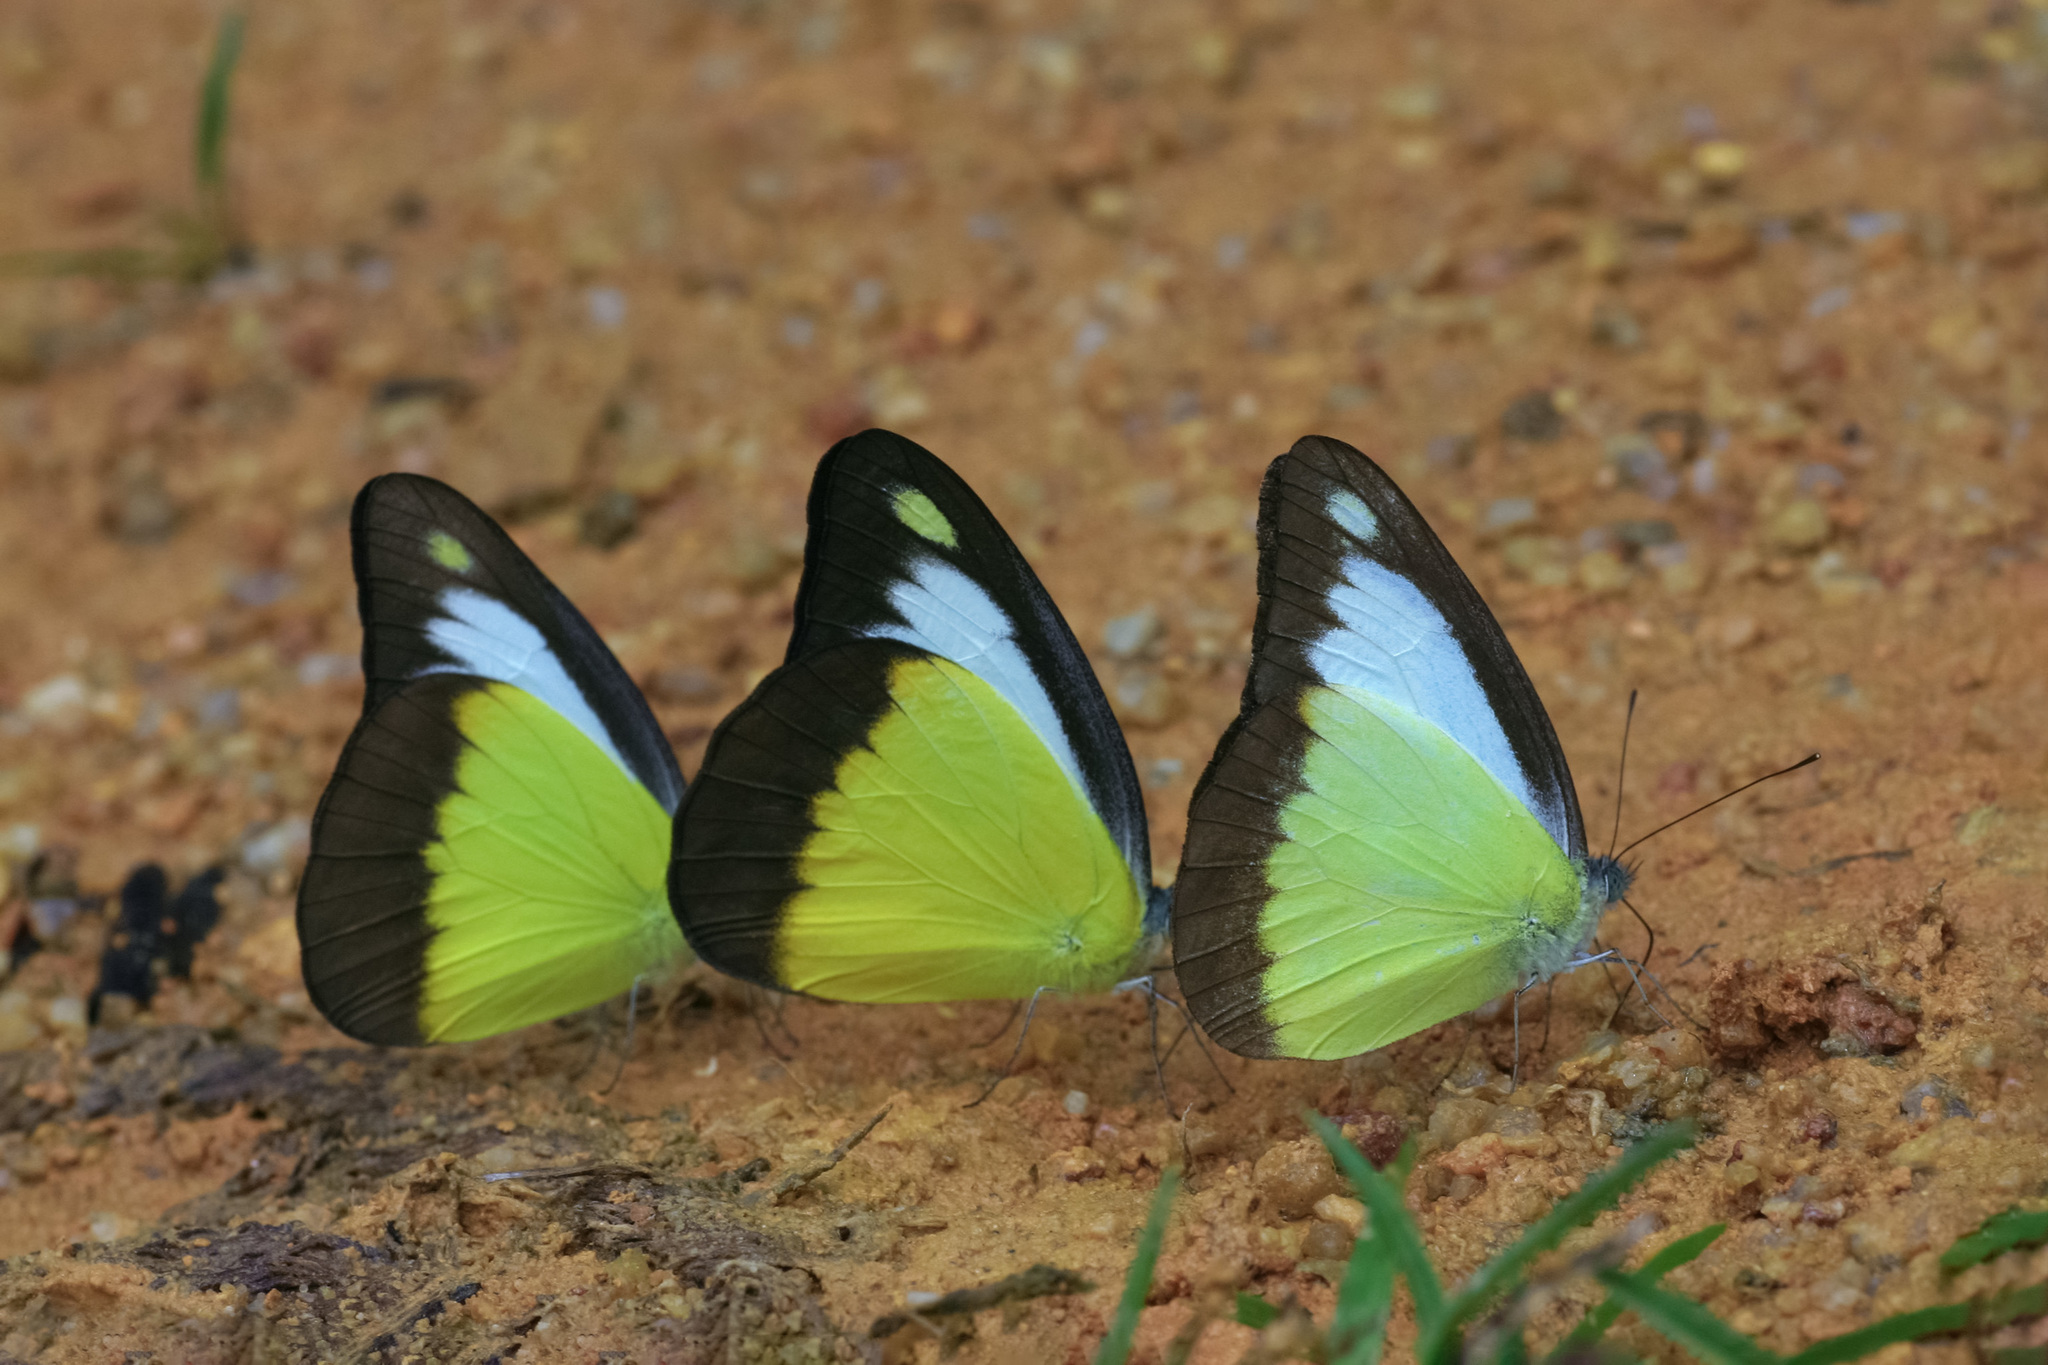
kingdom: Animalia
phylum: Arthropoda
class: Insecta
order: Lepidoptera
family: Pieridae
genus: Appias
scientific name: Appias lyncida
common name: Chocolate albatross
